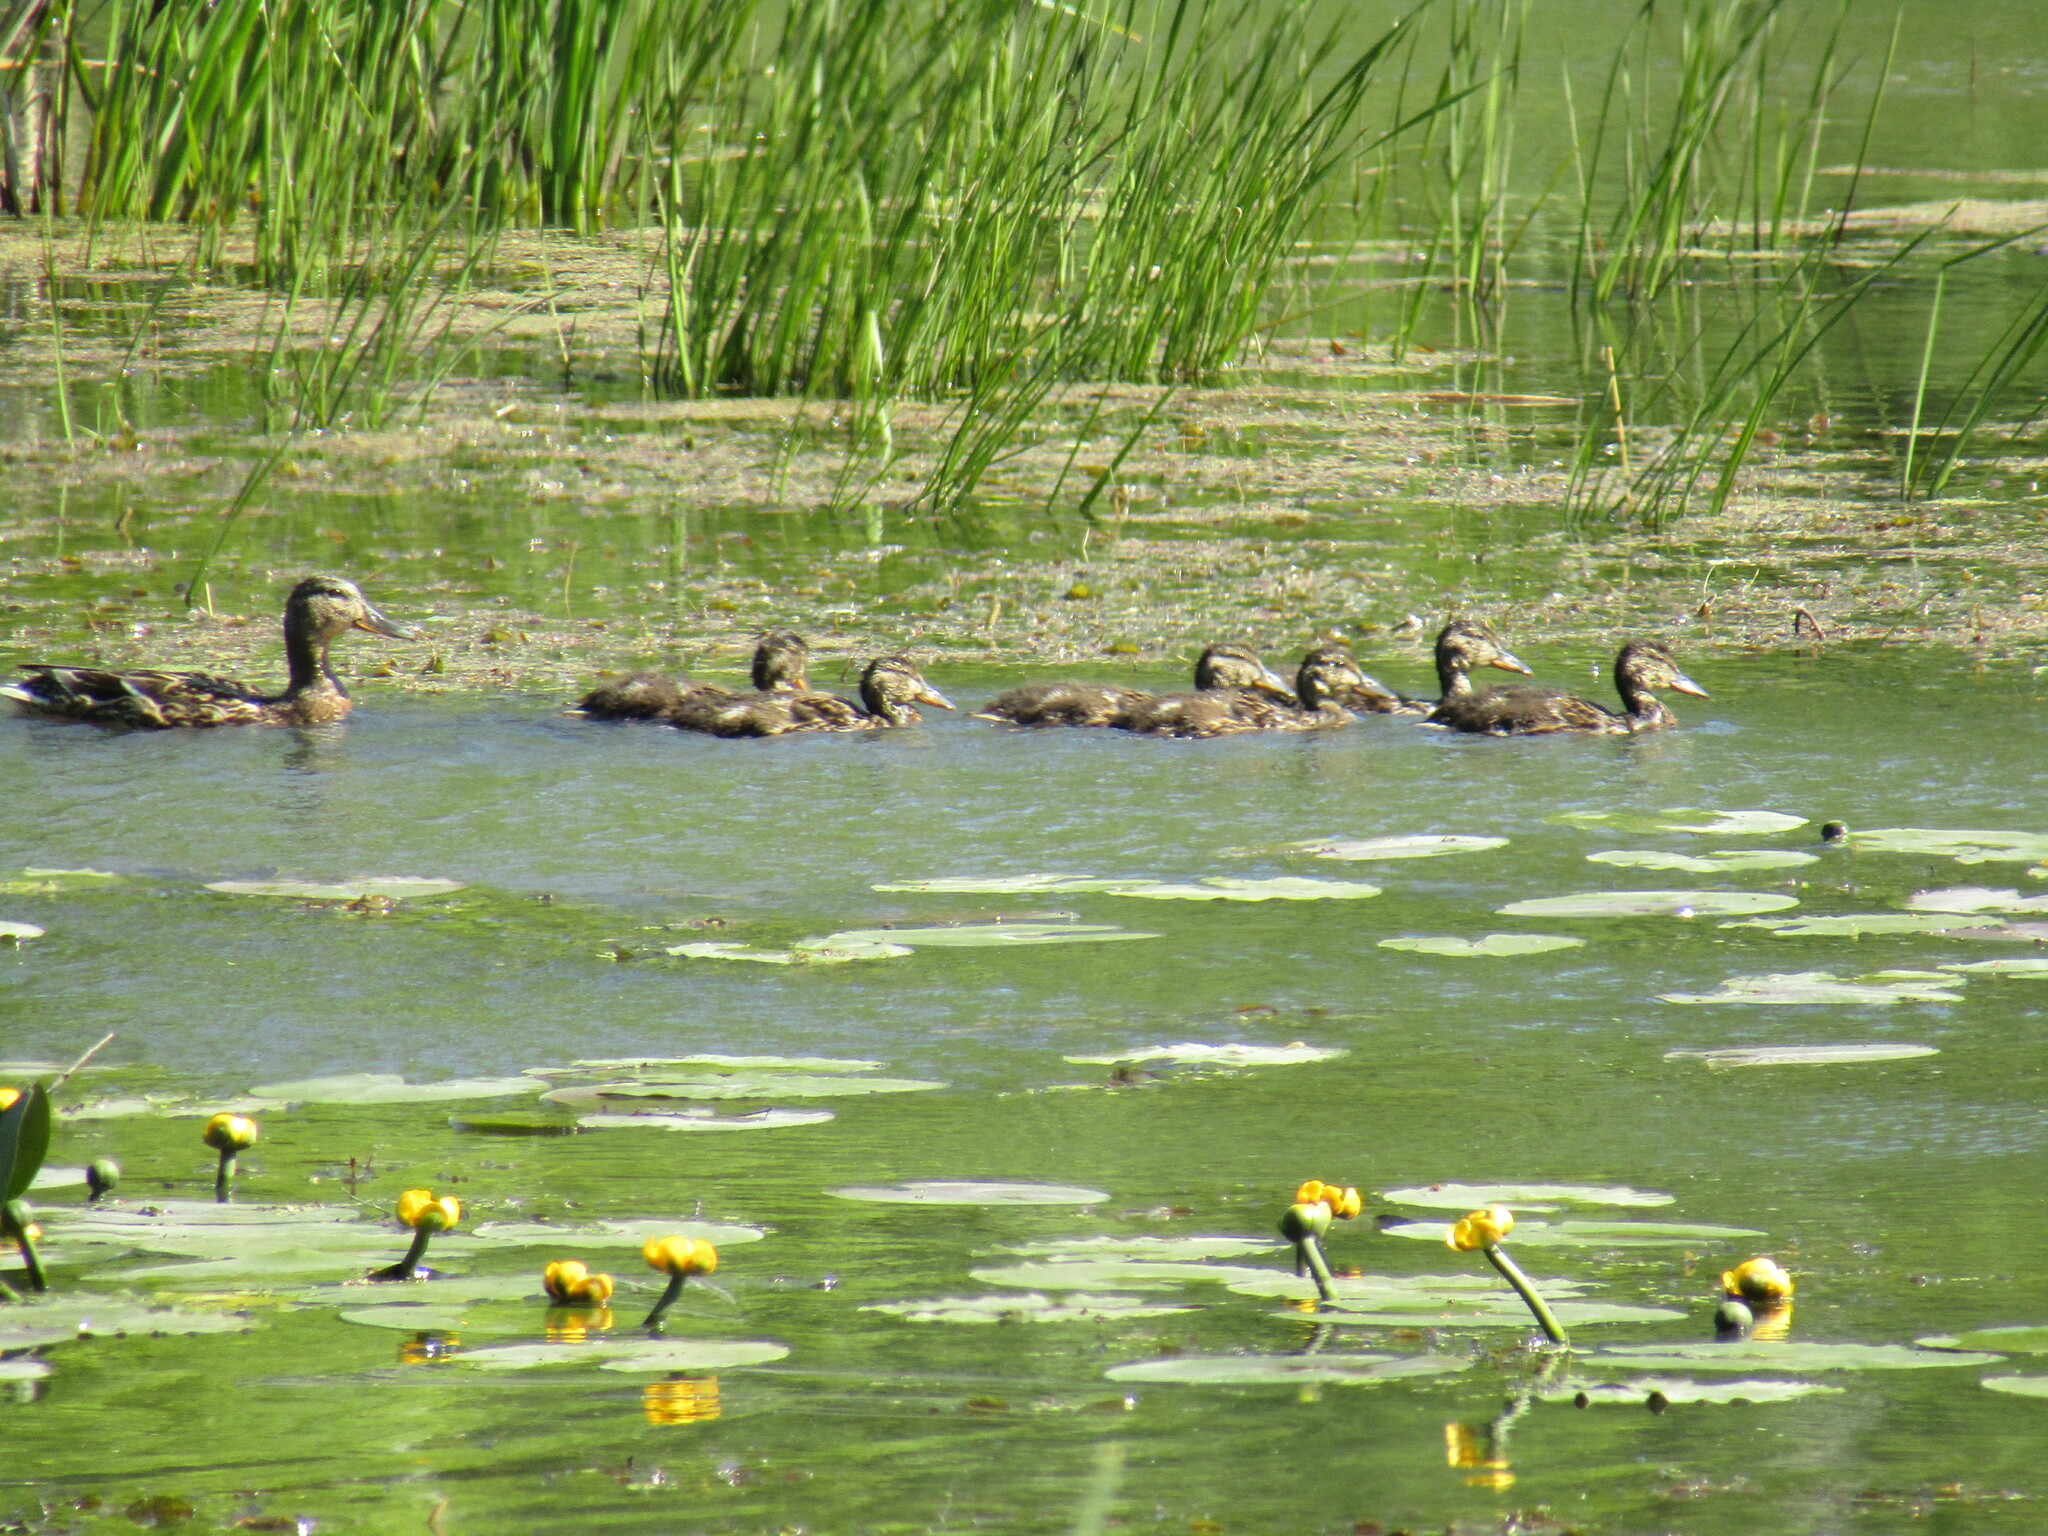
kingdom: Animalia
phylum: Chordata
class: Aves
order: Anseriformes
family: Anatidae
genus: Anas
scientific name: Anas platyrhynchos
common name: Mallard
